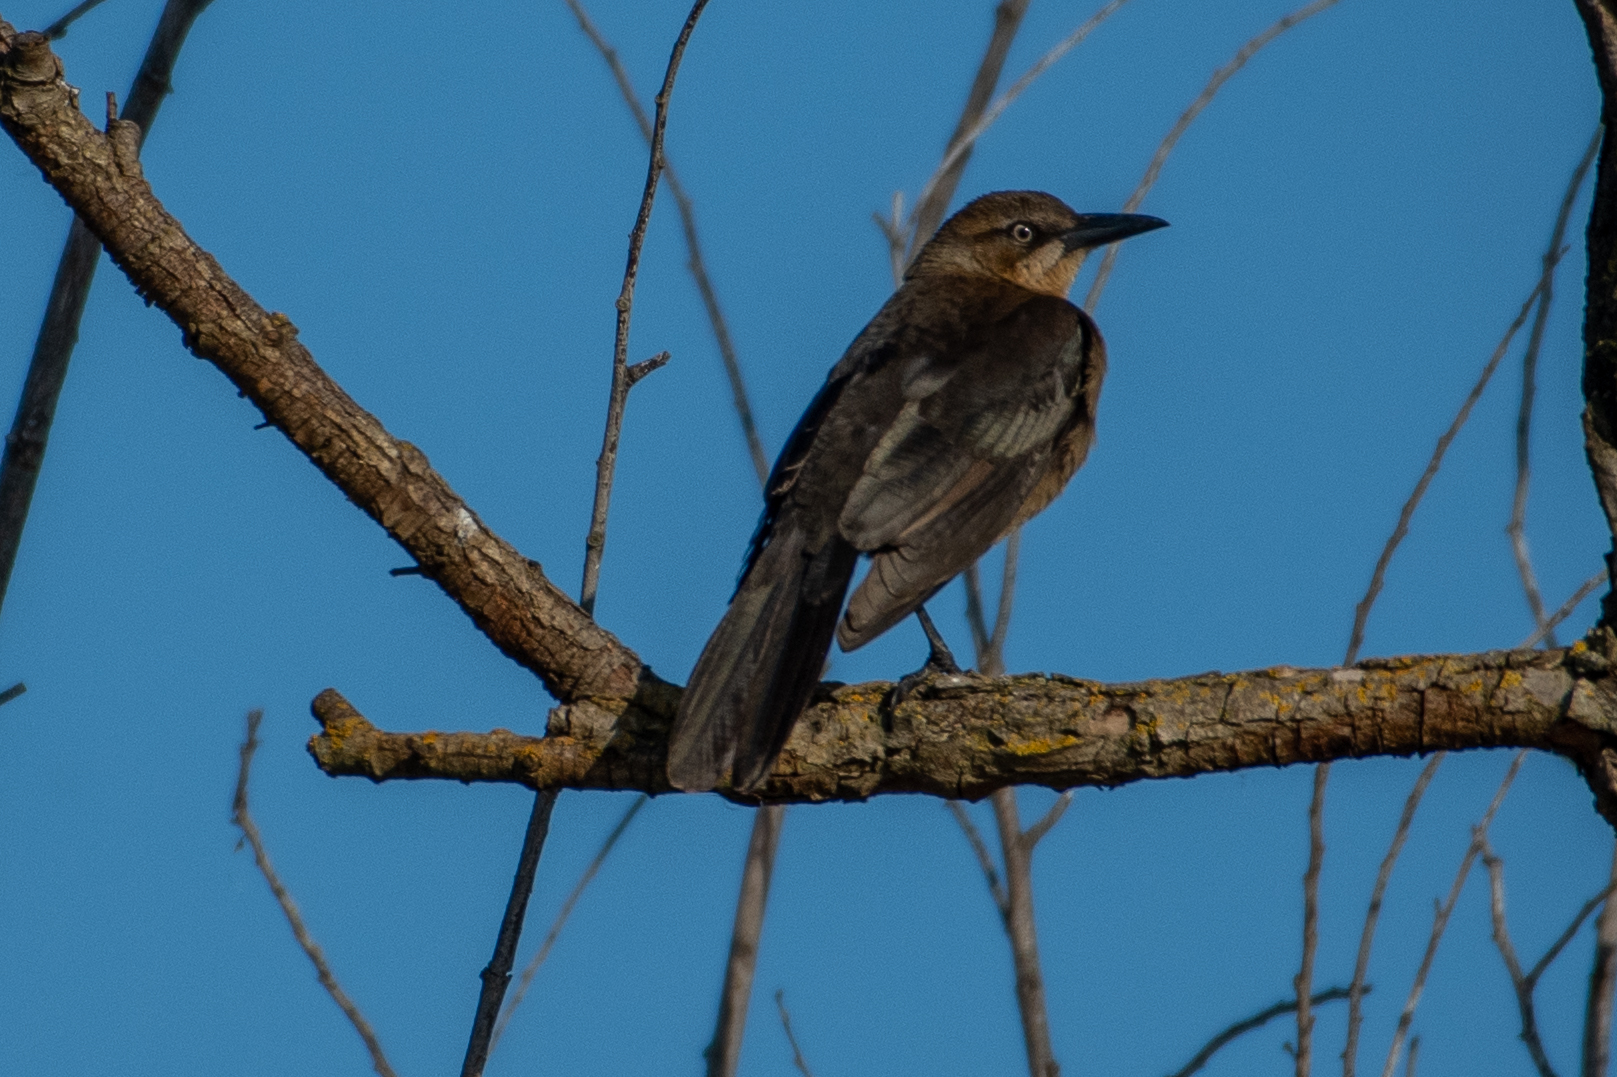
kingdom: Animalia
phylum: Chordata
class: Aves
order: Passeriformes
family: Icteridae
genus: Quiscalus
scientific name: Quiscalus mexicanus
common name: Great-tailed grackle
